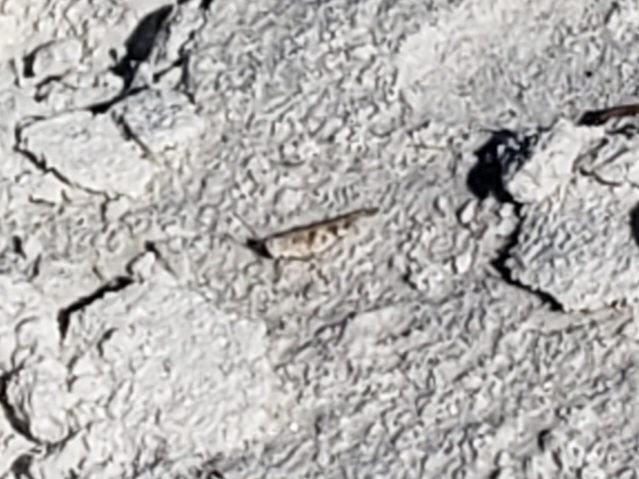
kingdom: Animalia
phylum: Arthropoda
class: Insecta
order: Orthoptera
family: Acrididae
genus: Trimerotropis
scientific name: Trimerotropis maritima
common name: Seaside locust
